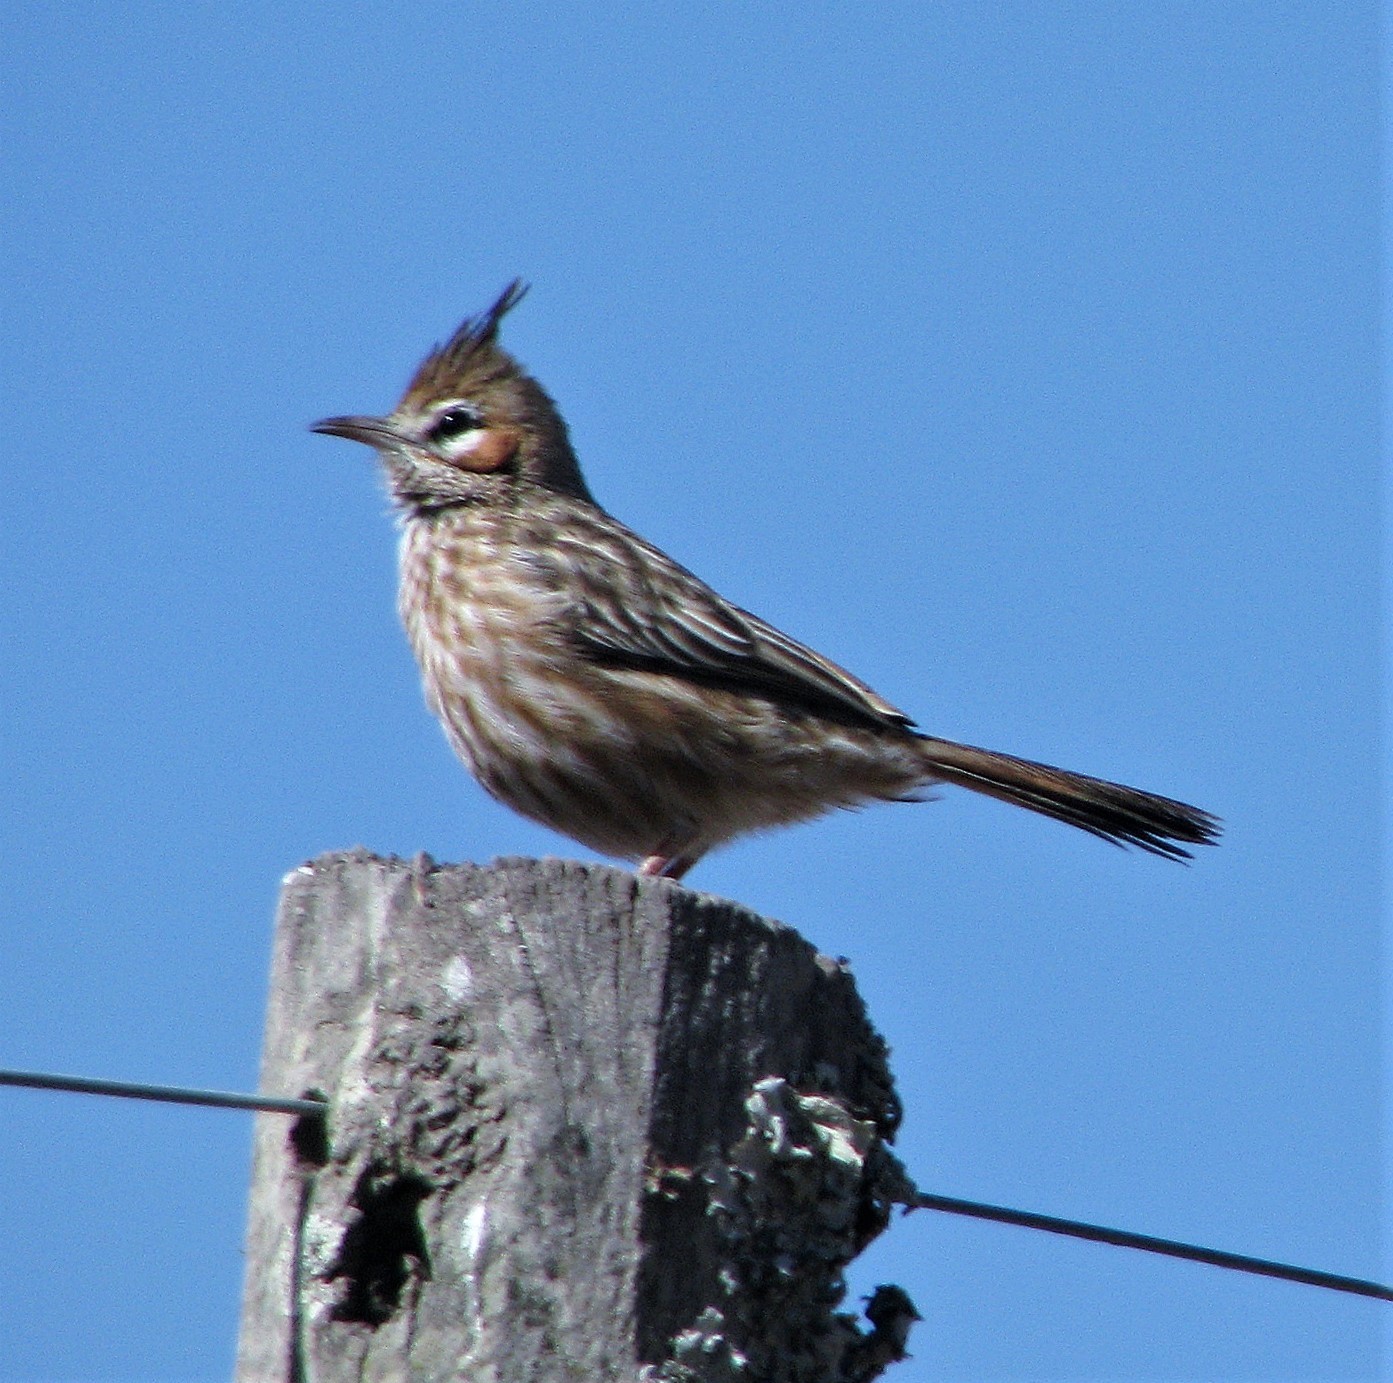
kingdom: Animalia
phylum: Chordata
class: Aves
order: Passeriformes
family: Furnariidae
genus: Coryphistera
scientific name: Coryphistera alaudina
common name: Lark-like brushrunner
